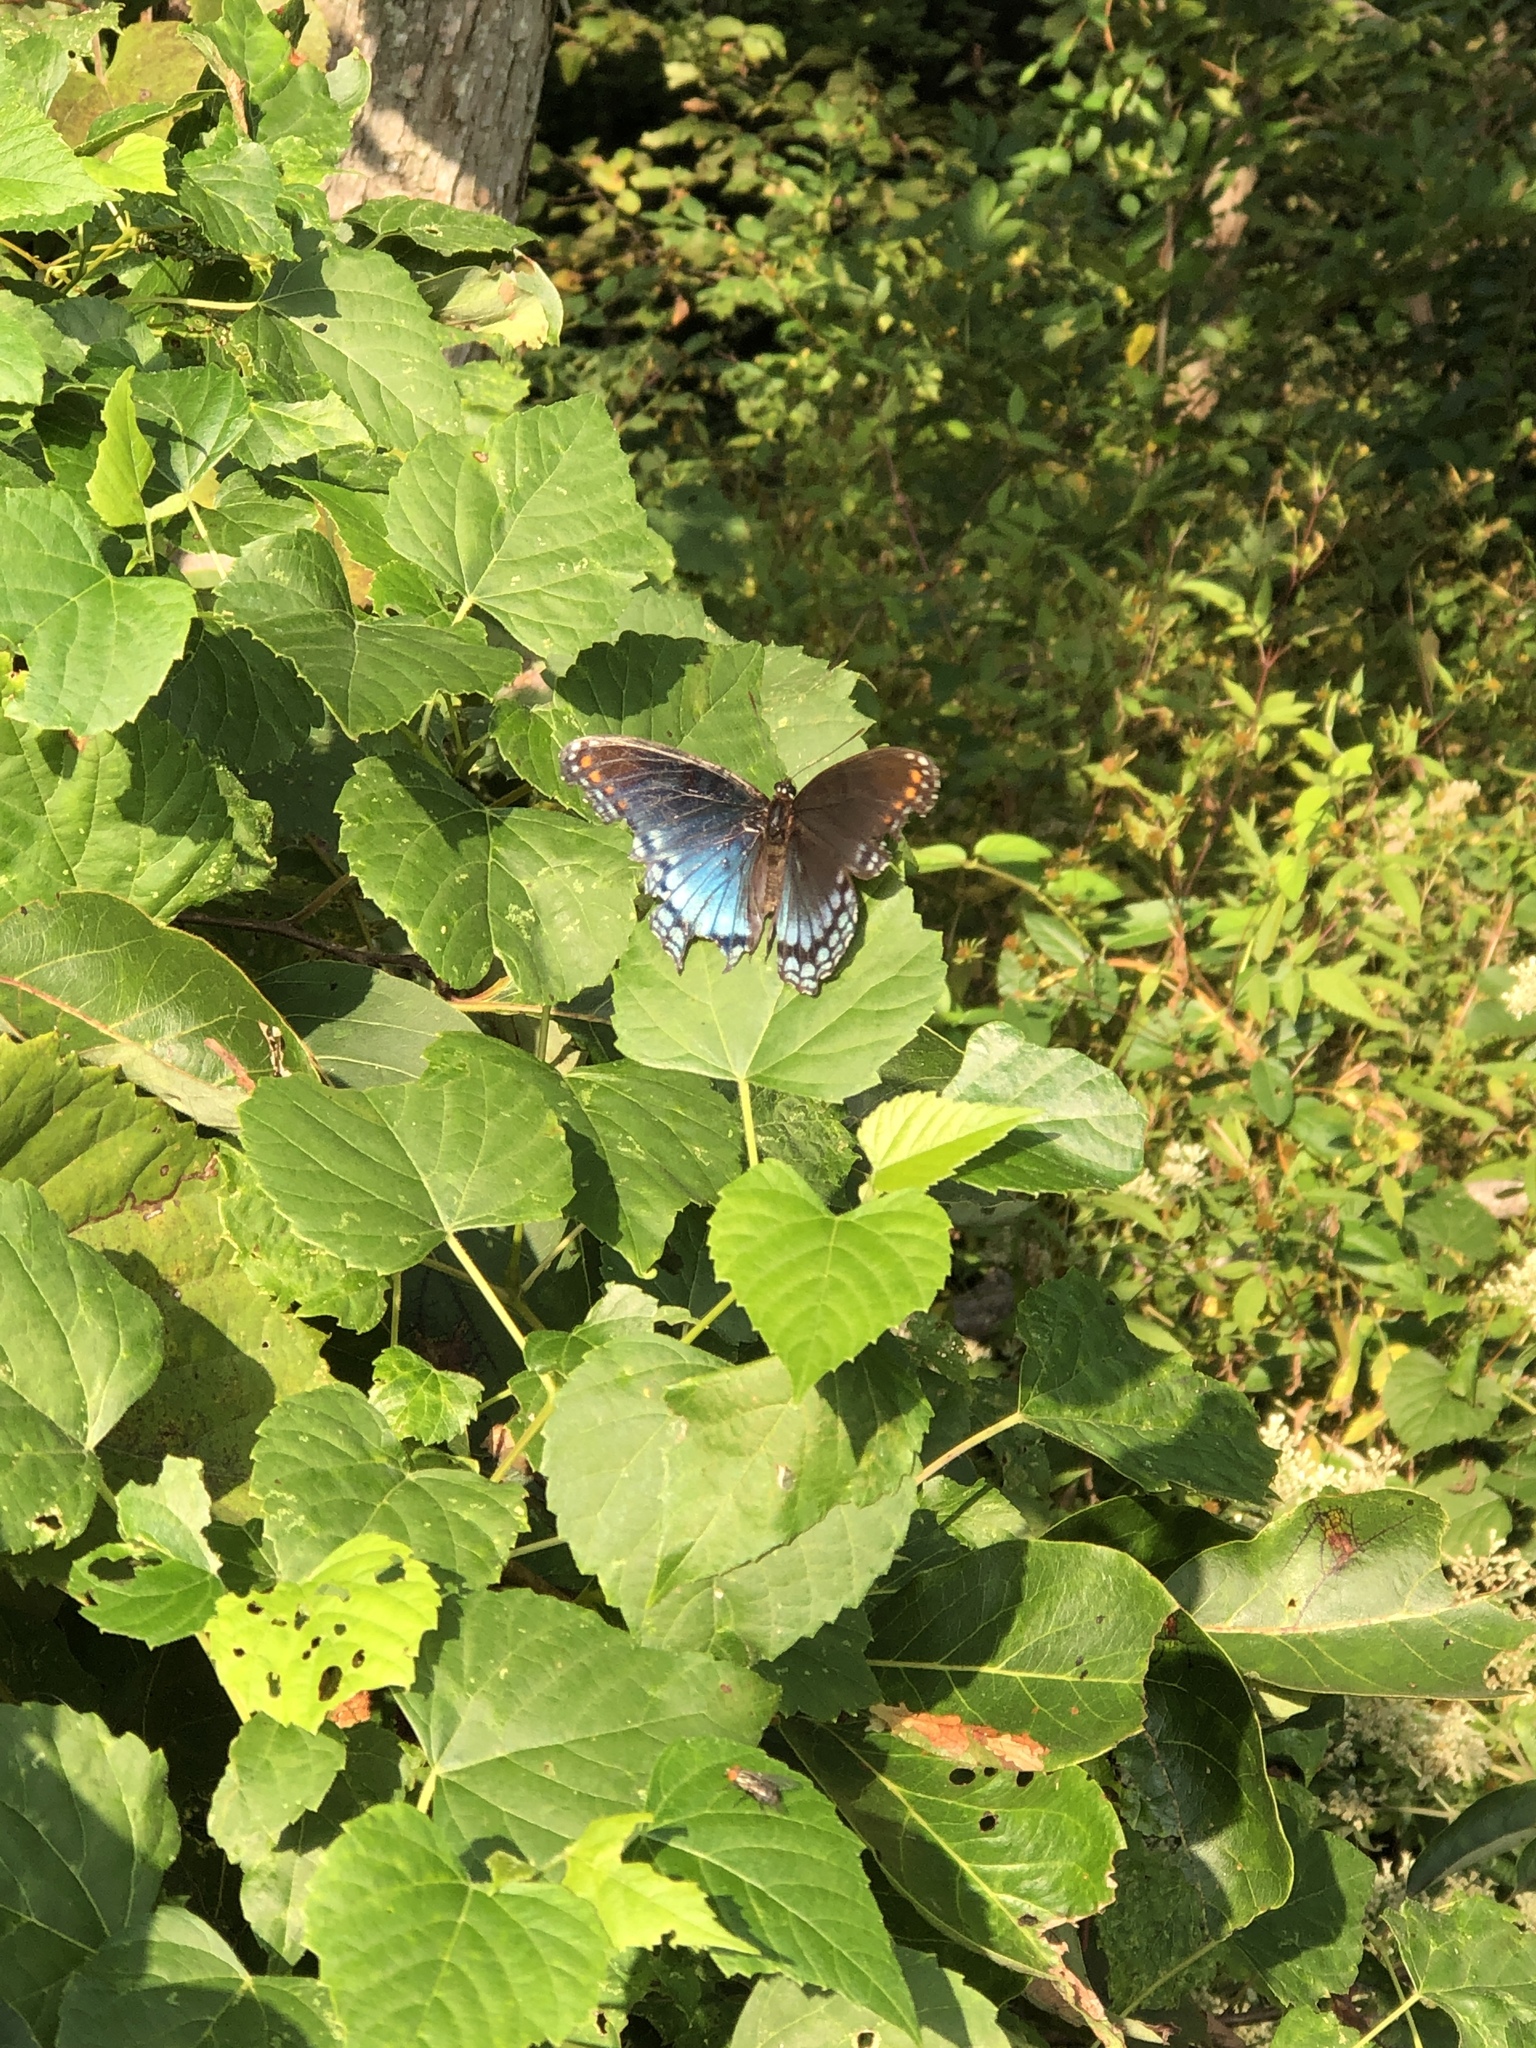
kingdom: Animalia
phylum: Arthropoda
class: Insecta
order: Lepidoptera
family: Nymphalidae
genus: Limenitis
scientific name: Limenitis astyanax
